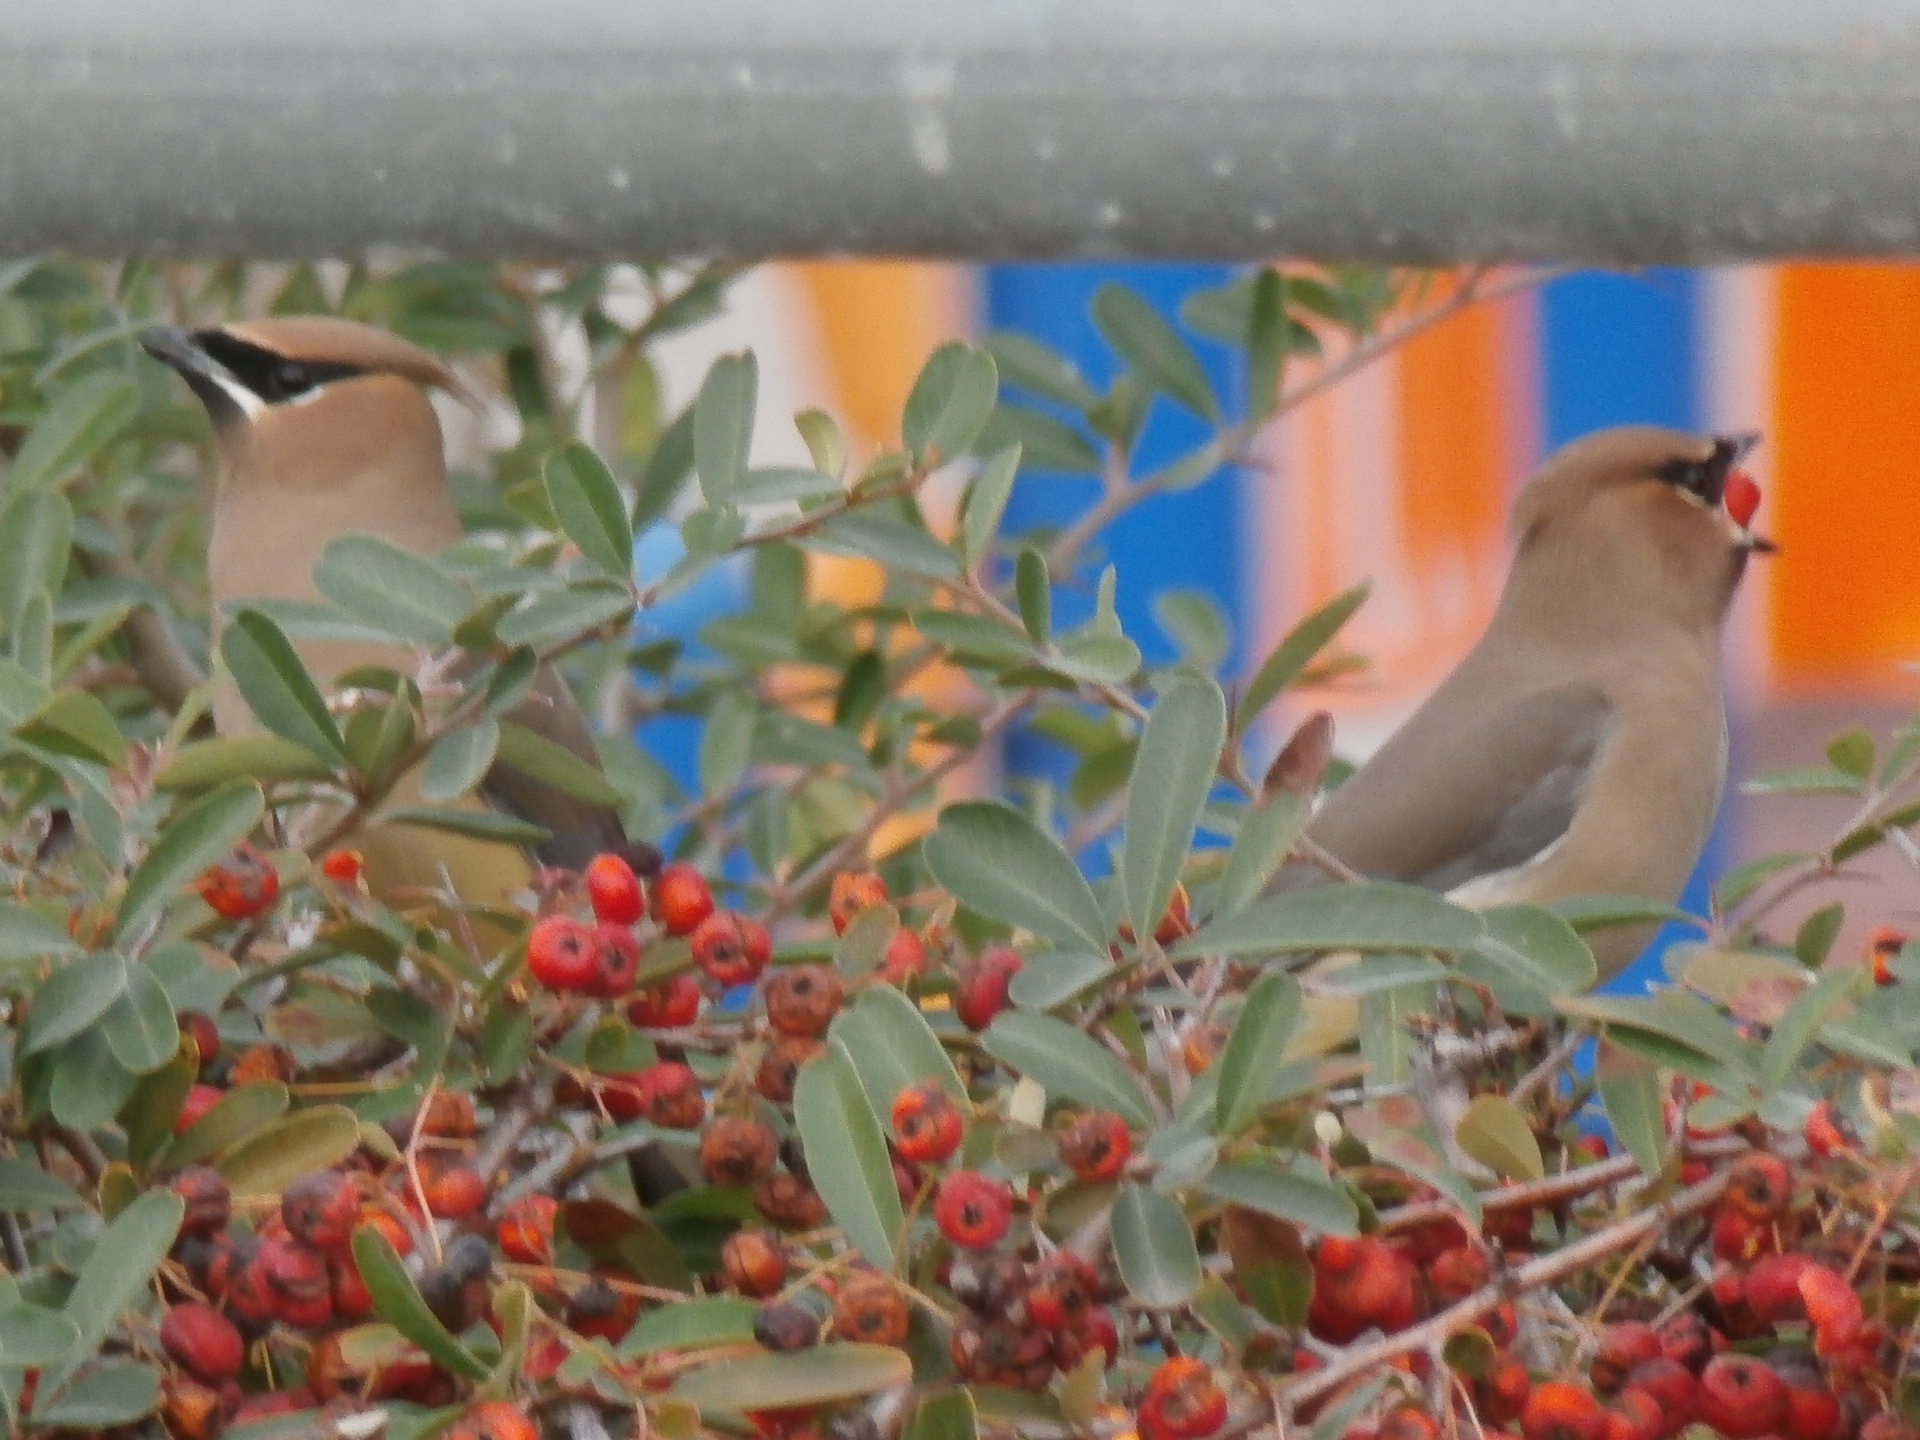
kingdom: Animalia
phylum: Chordata
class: Aves
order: Passeriformes
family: Bombycillidae
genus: Bombycilla
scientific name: Bombycilla cedrorum
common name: Cedar waxwing
